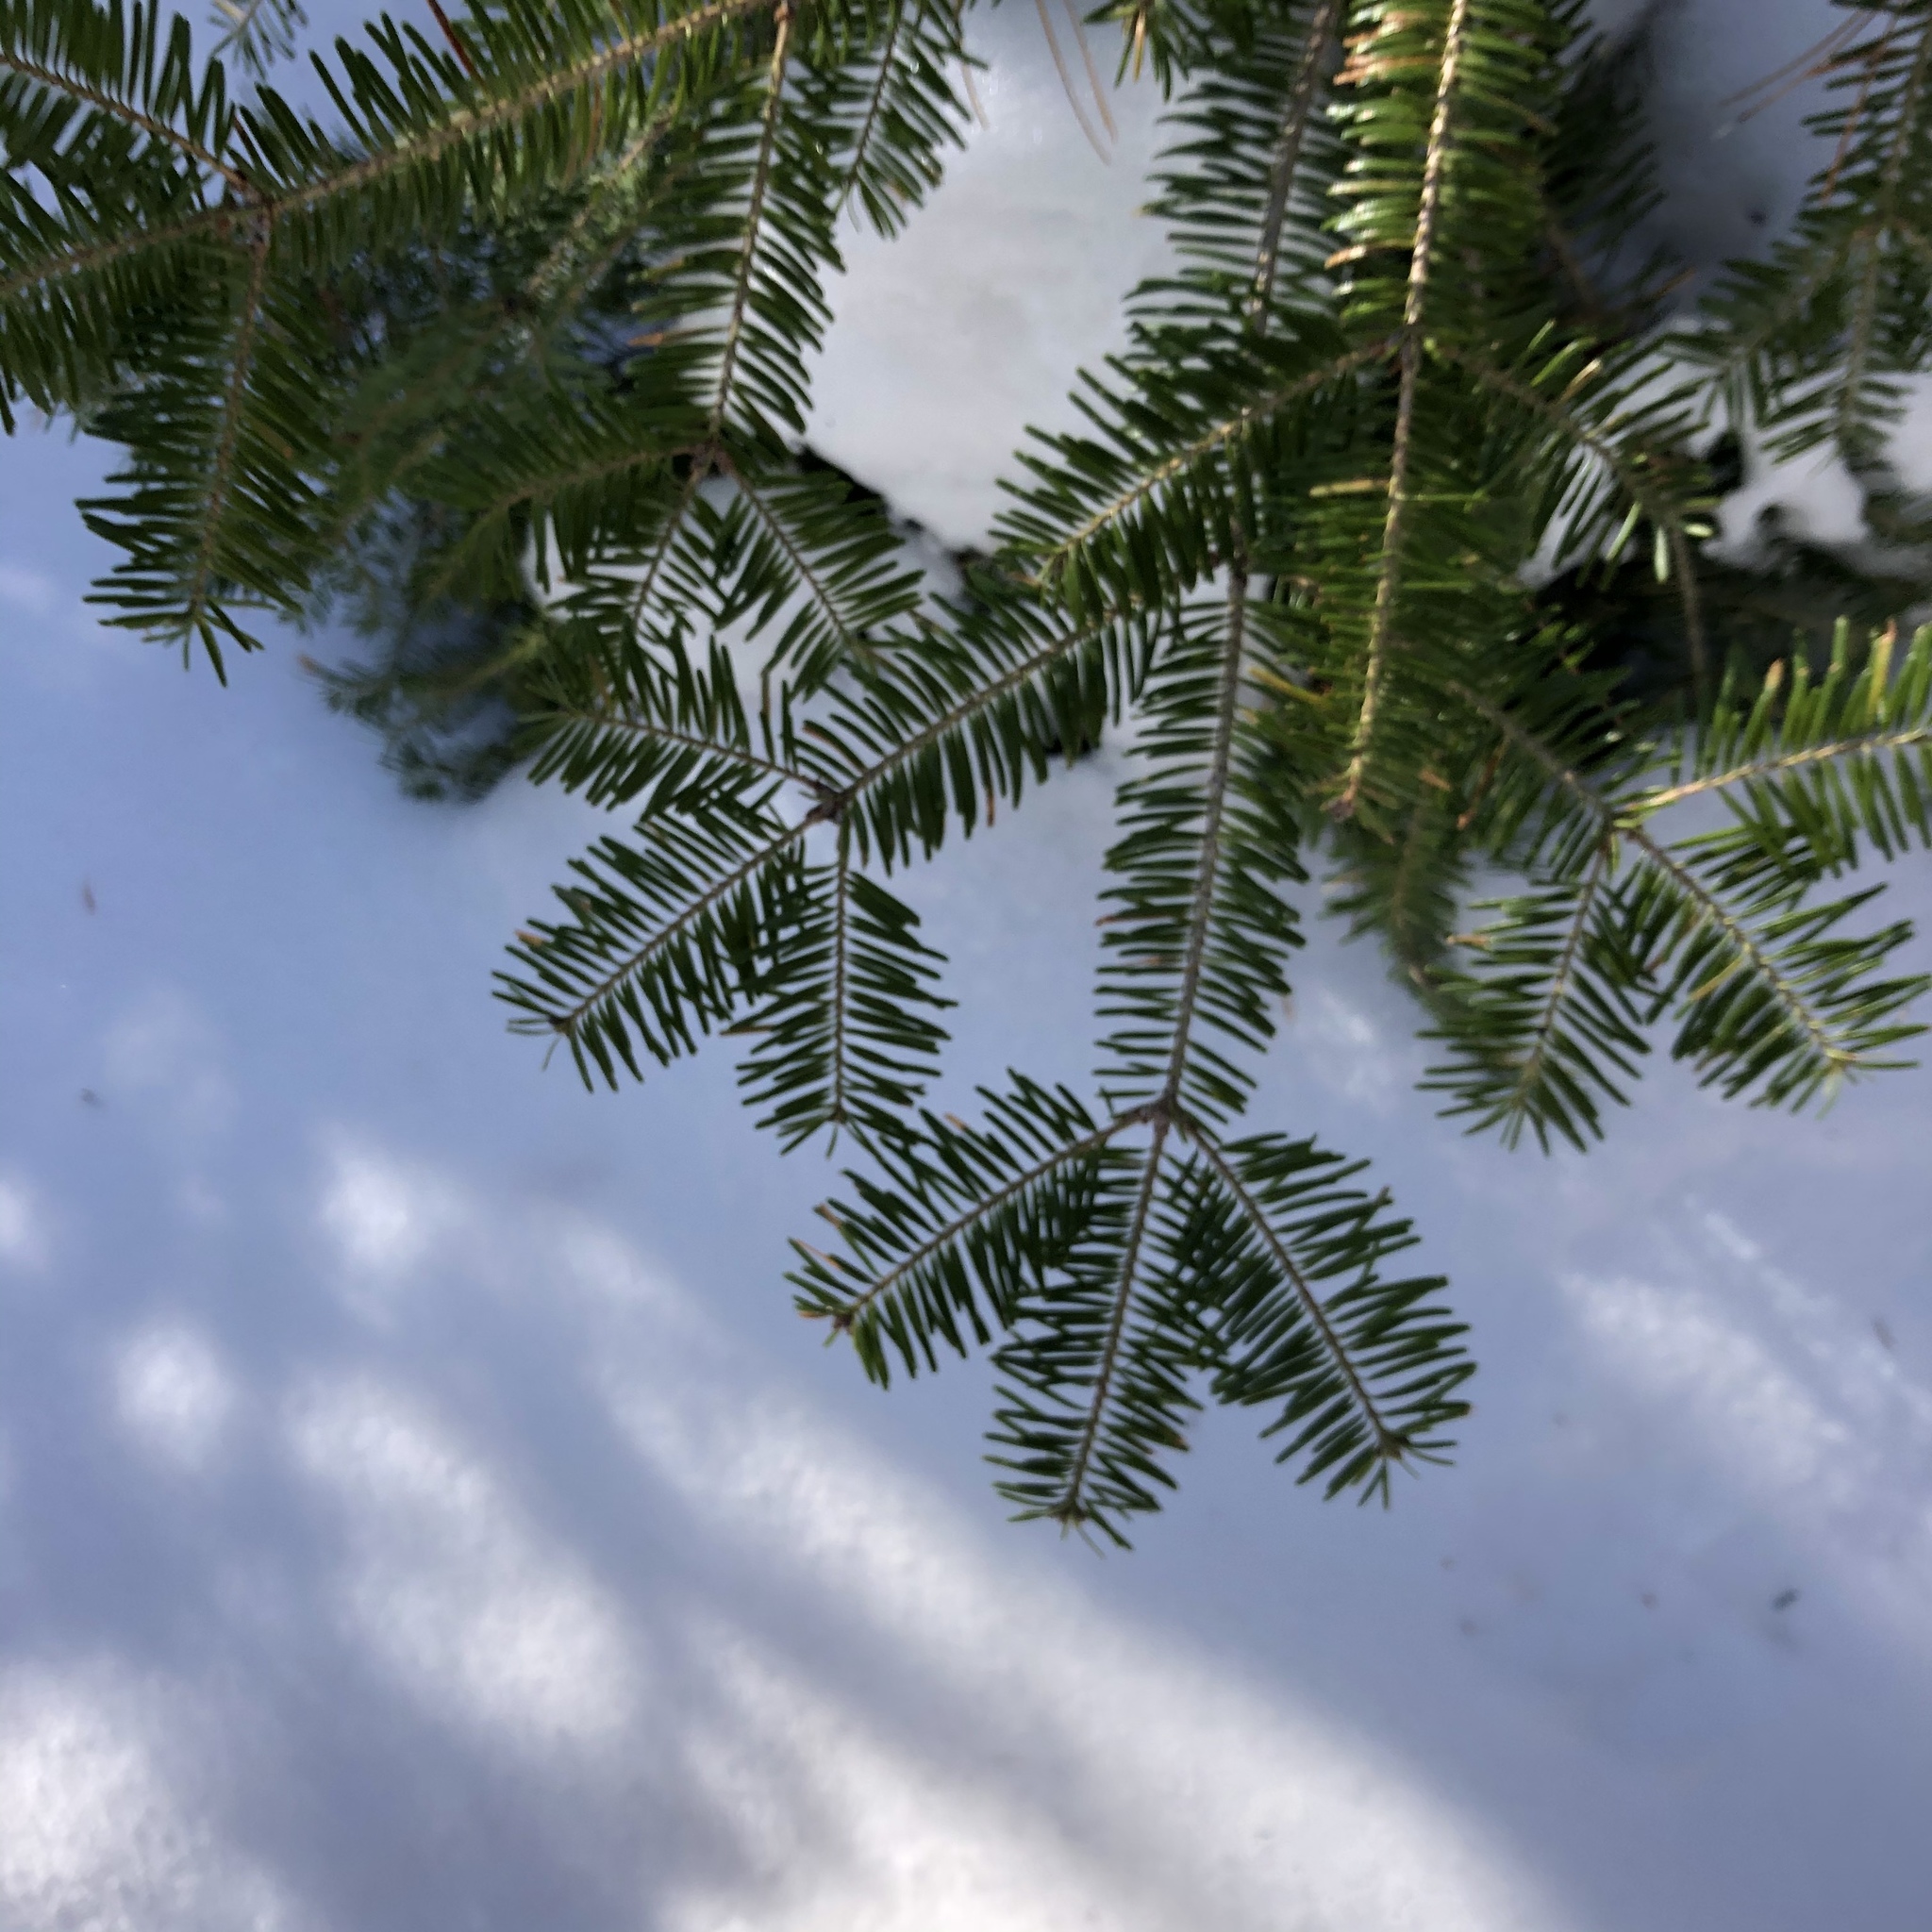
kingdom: Plantae
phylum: Tracheophyta
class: Pinopsida
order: Pinales
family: Pinaceae
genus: Abies
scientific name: Abies balsamea
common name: Balsam fir
